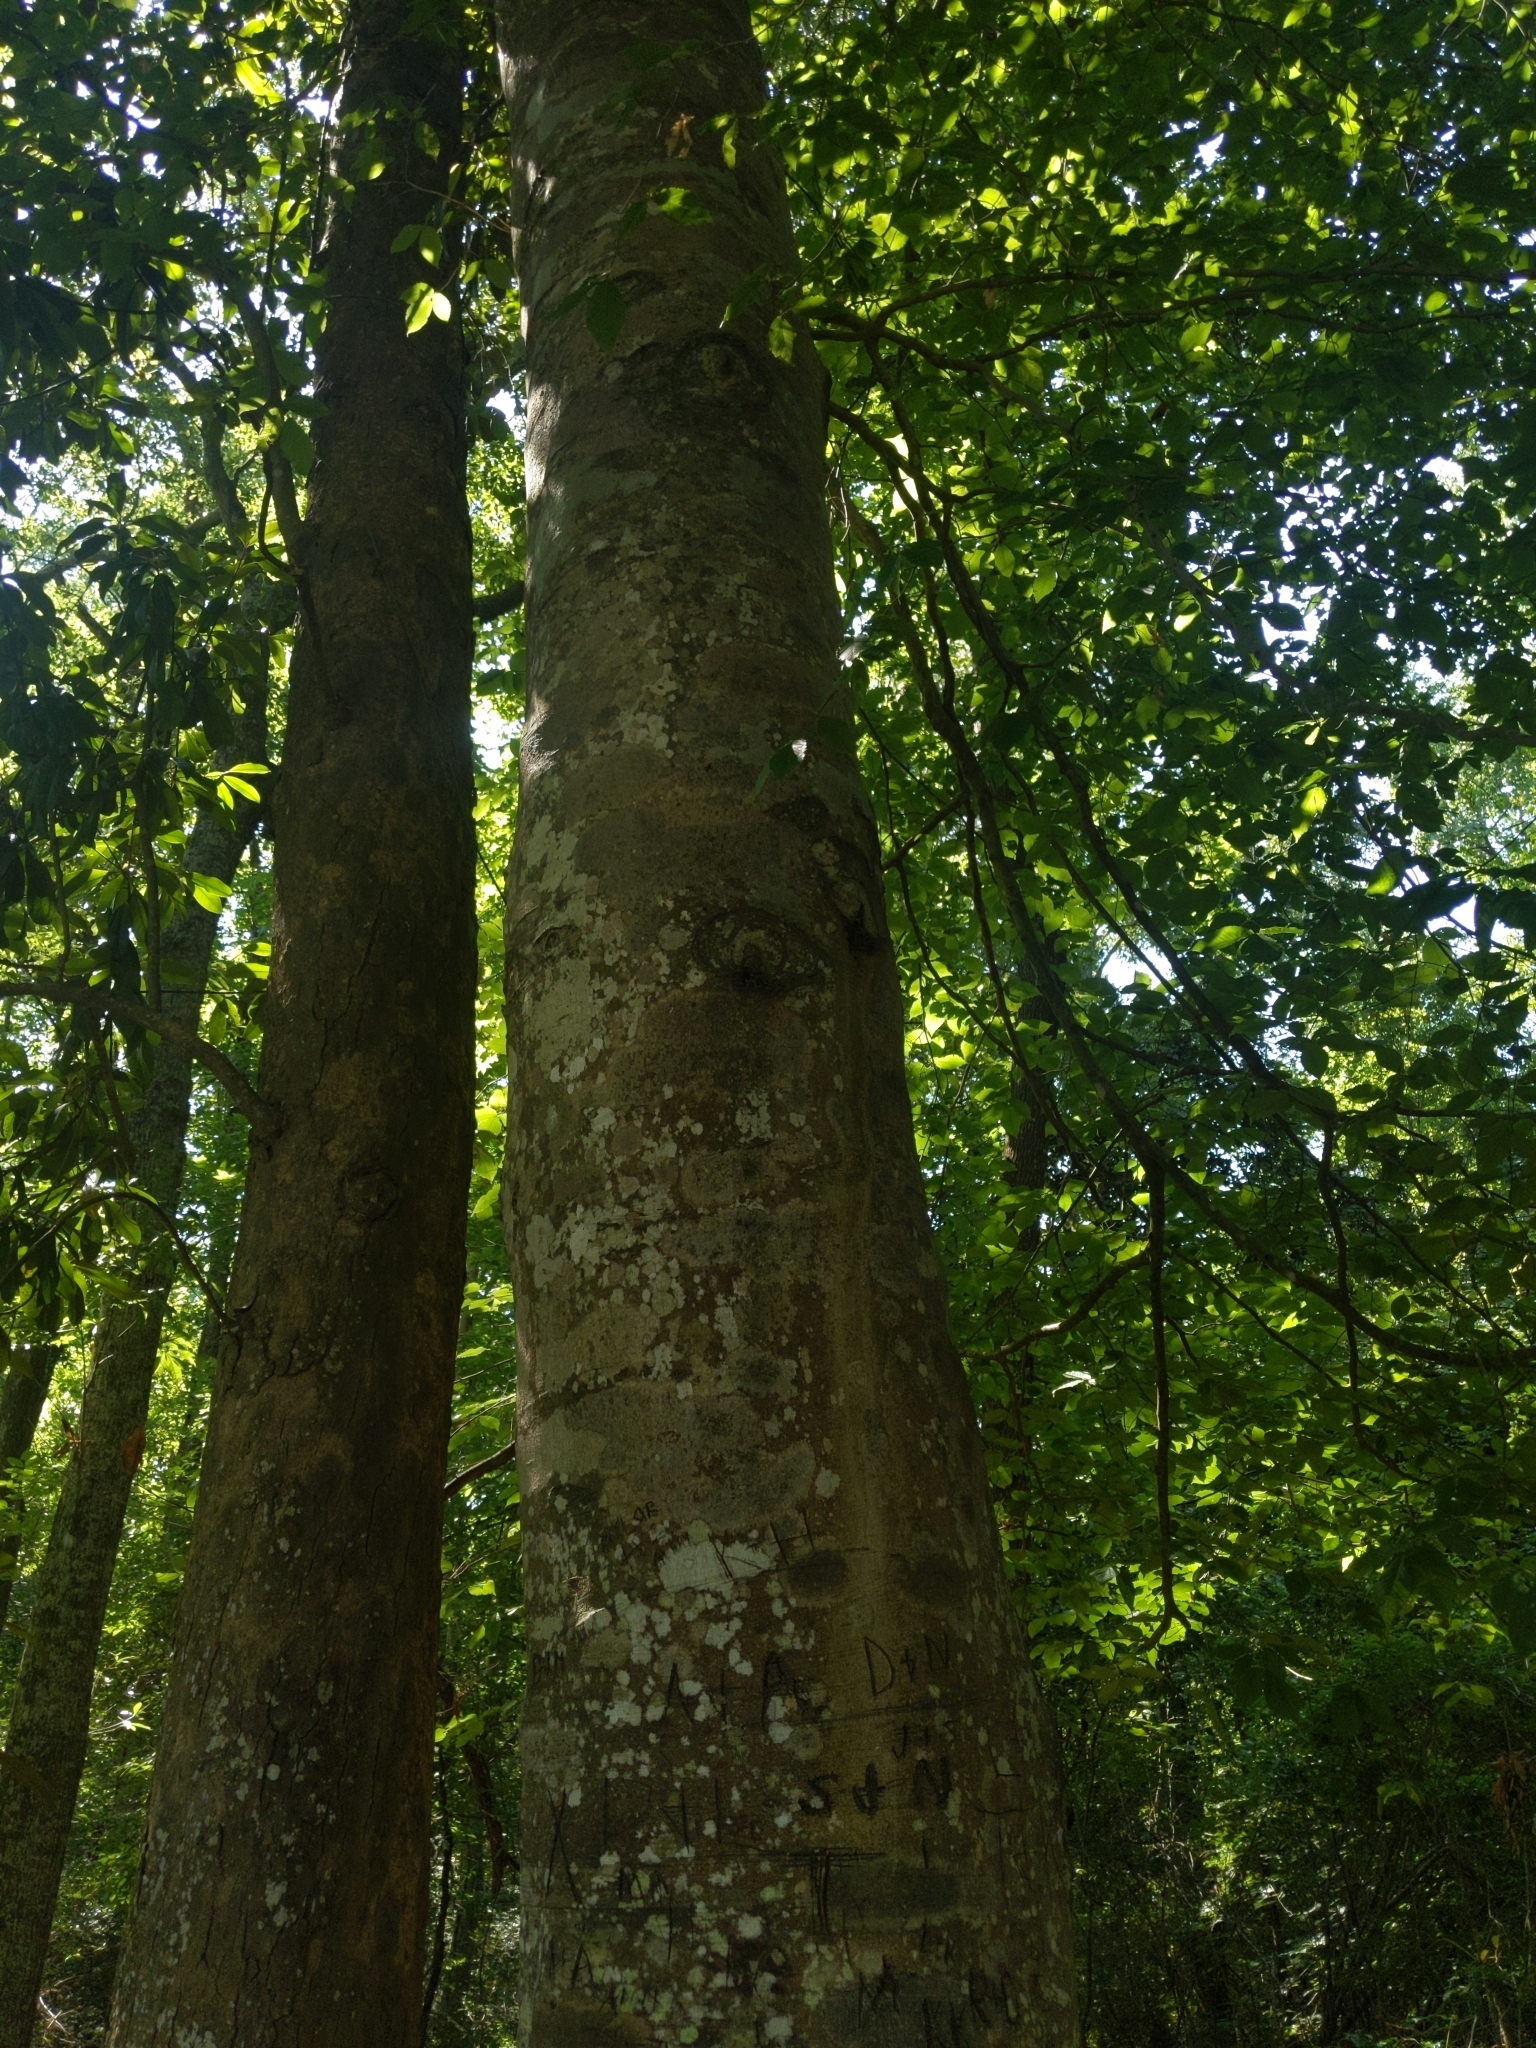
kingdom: Plantae
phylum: Tracheophyta
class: Magnoliopsida
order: Fagales
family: Fagaceae
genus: Fagus
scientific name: Fagus grandifolia
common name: American beech
